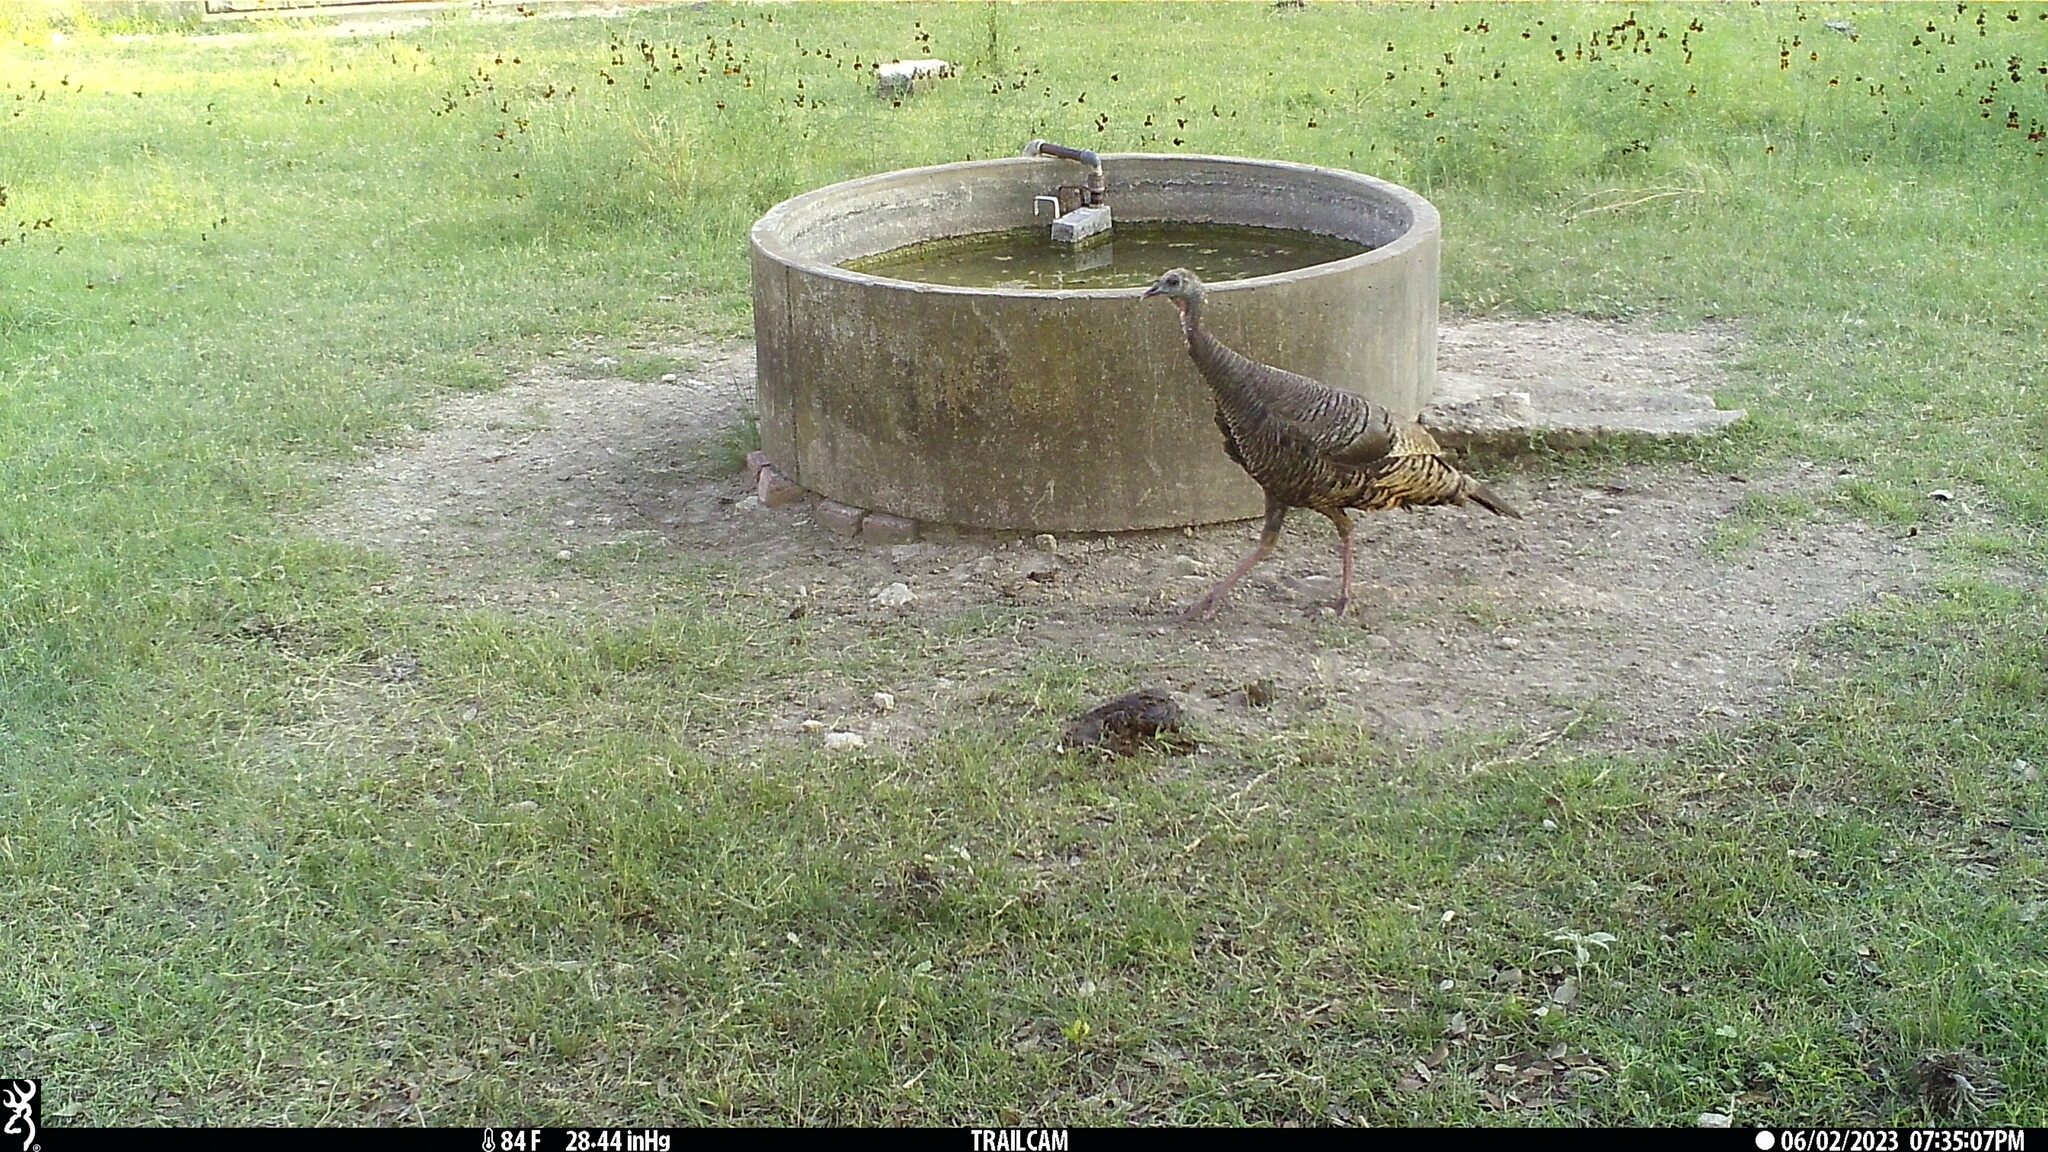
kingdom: Animalia
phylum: Chordata
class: Aves
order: Galliformes
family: Phasianidae
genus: Meleagris
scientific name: Meleagris gallopavo
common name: Wild turkey
